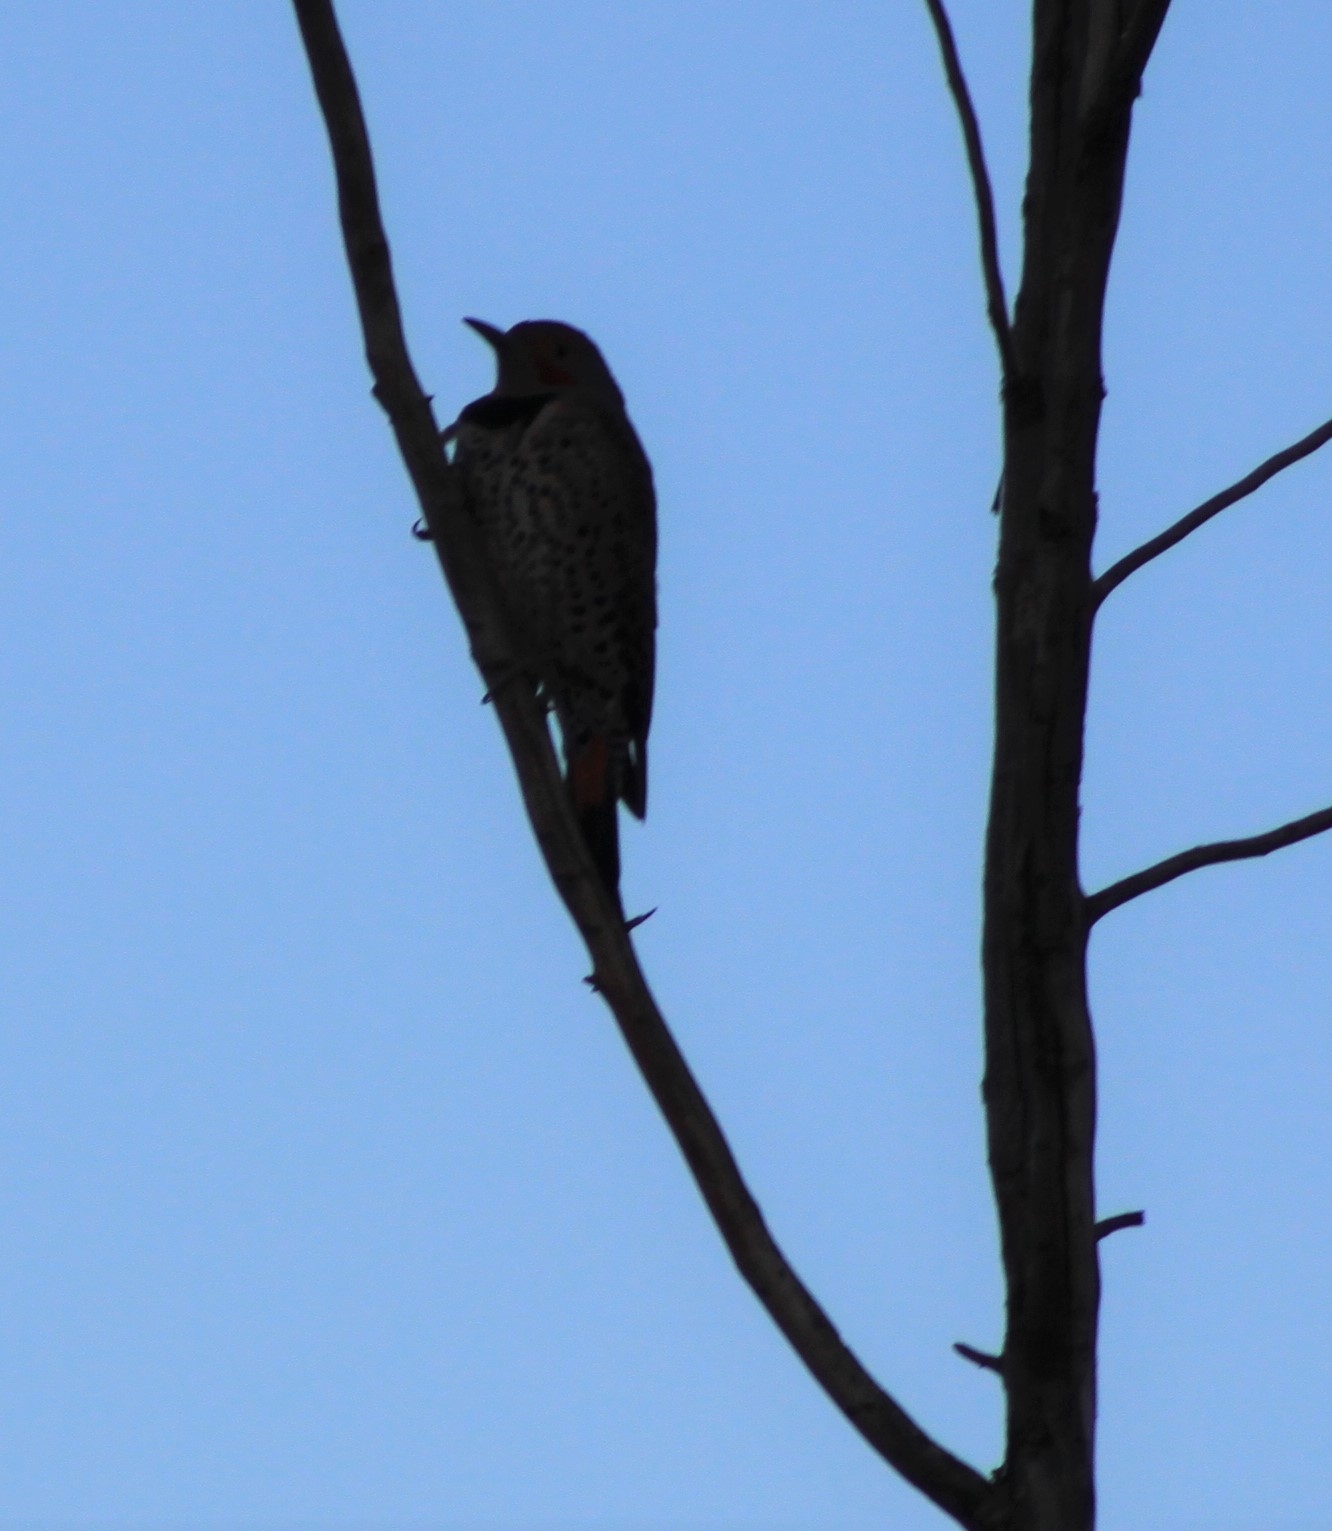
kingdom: Animalia
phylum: Chordata
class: Aves
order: Piciformes
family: Picidae
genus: Colaptes
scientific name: Colaptes auratus
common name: Northern flicker
